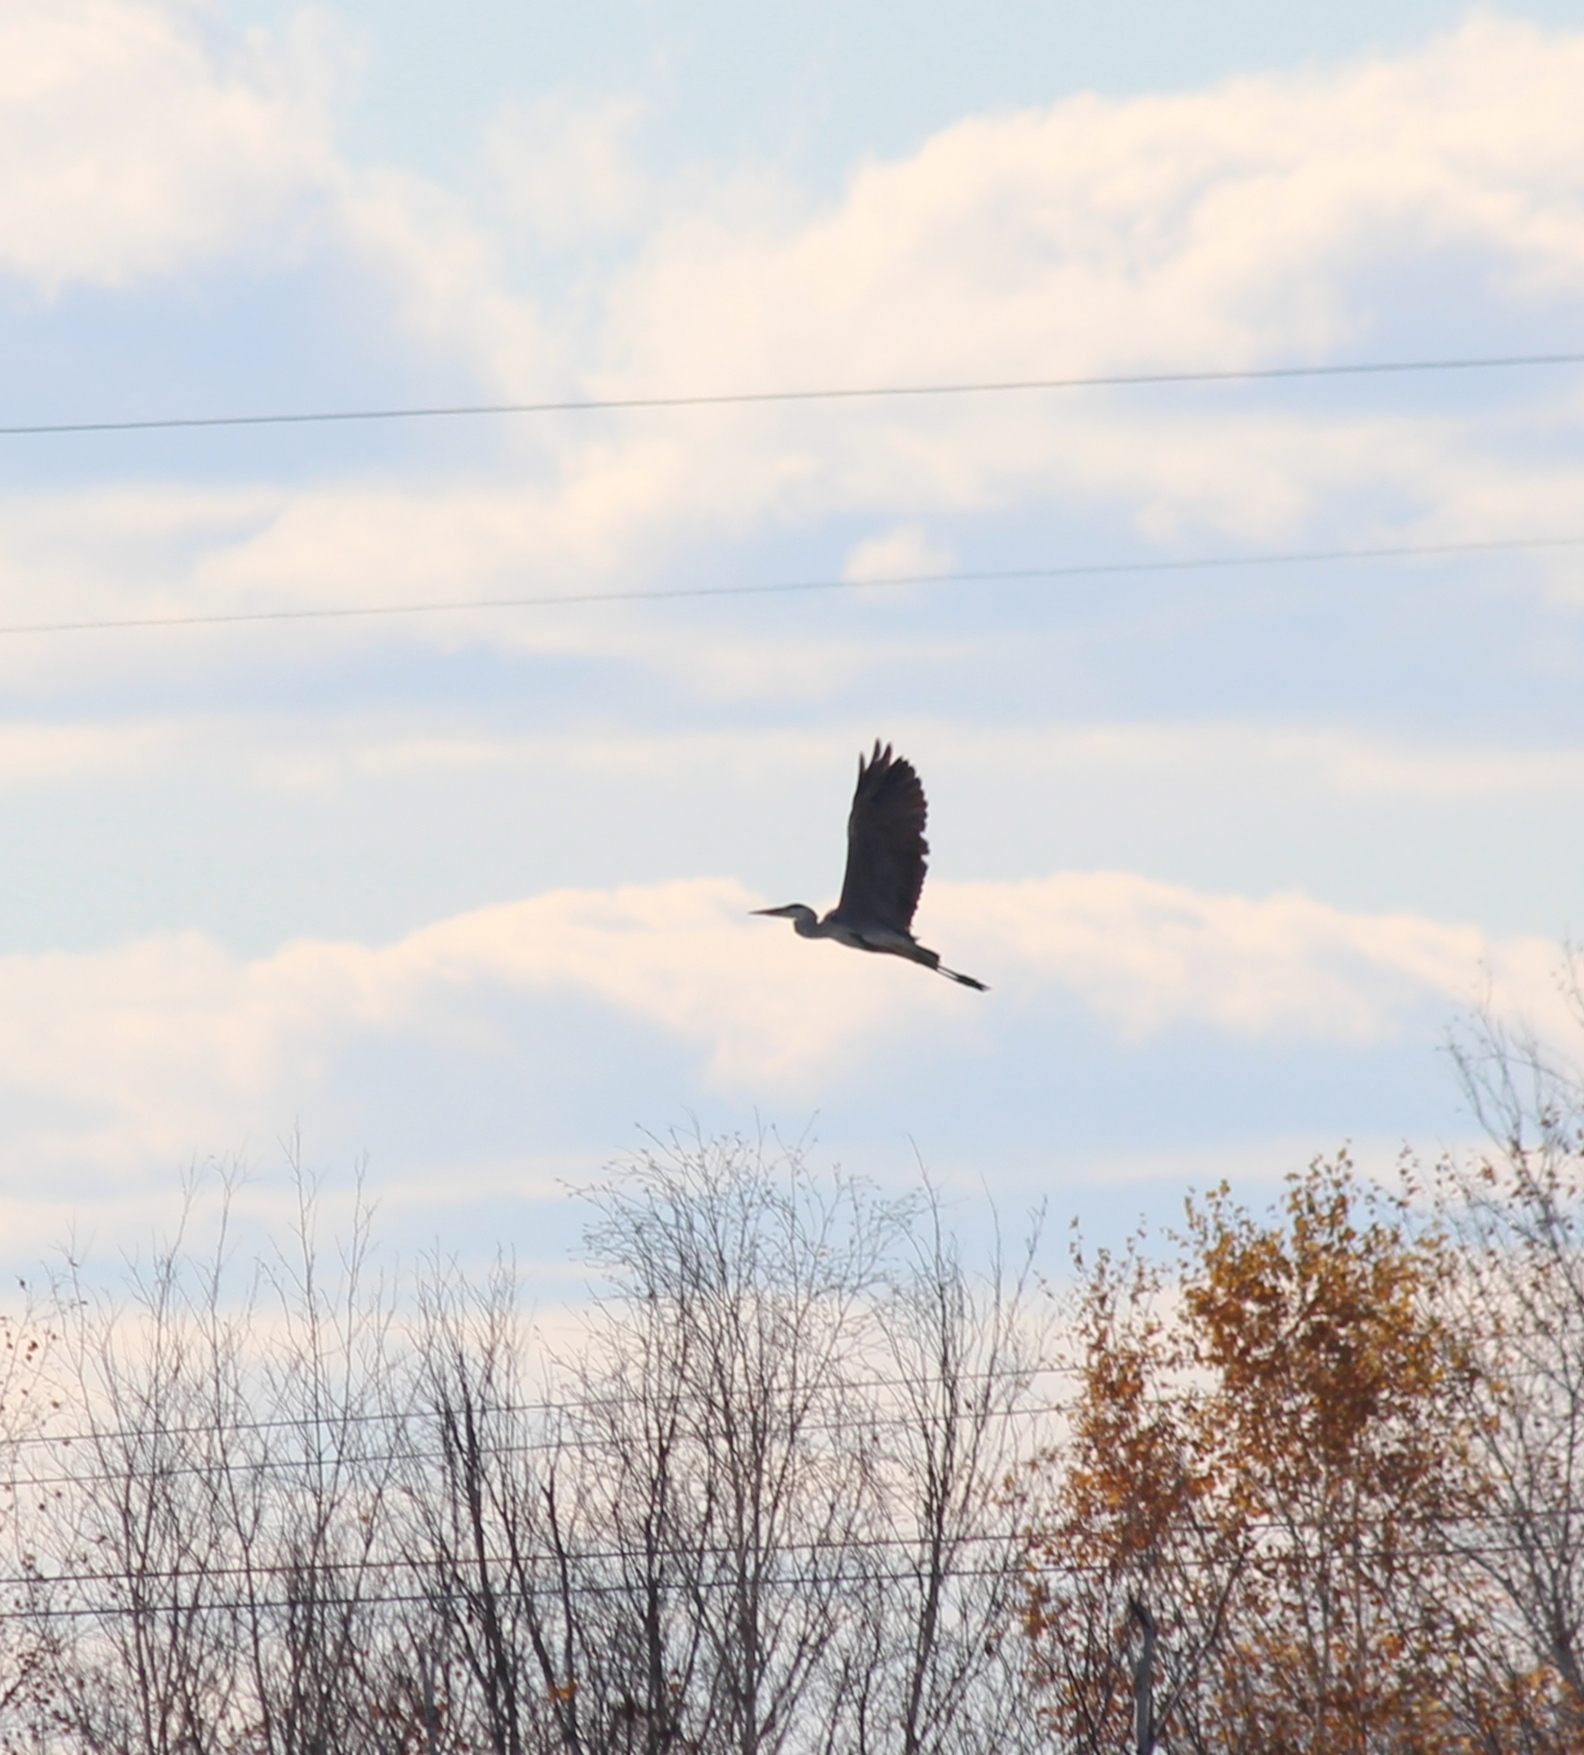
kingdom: Animalia
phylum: Chordata
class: Aves
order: Pelecaniformes
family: Ardeidae
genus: Ardea
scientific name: Ardea cinerea
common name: Grey heron
